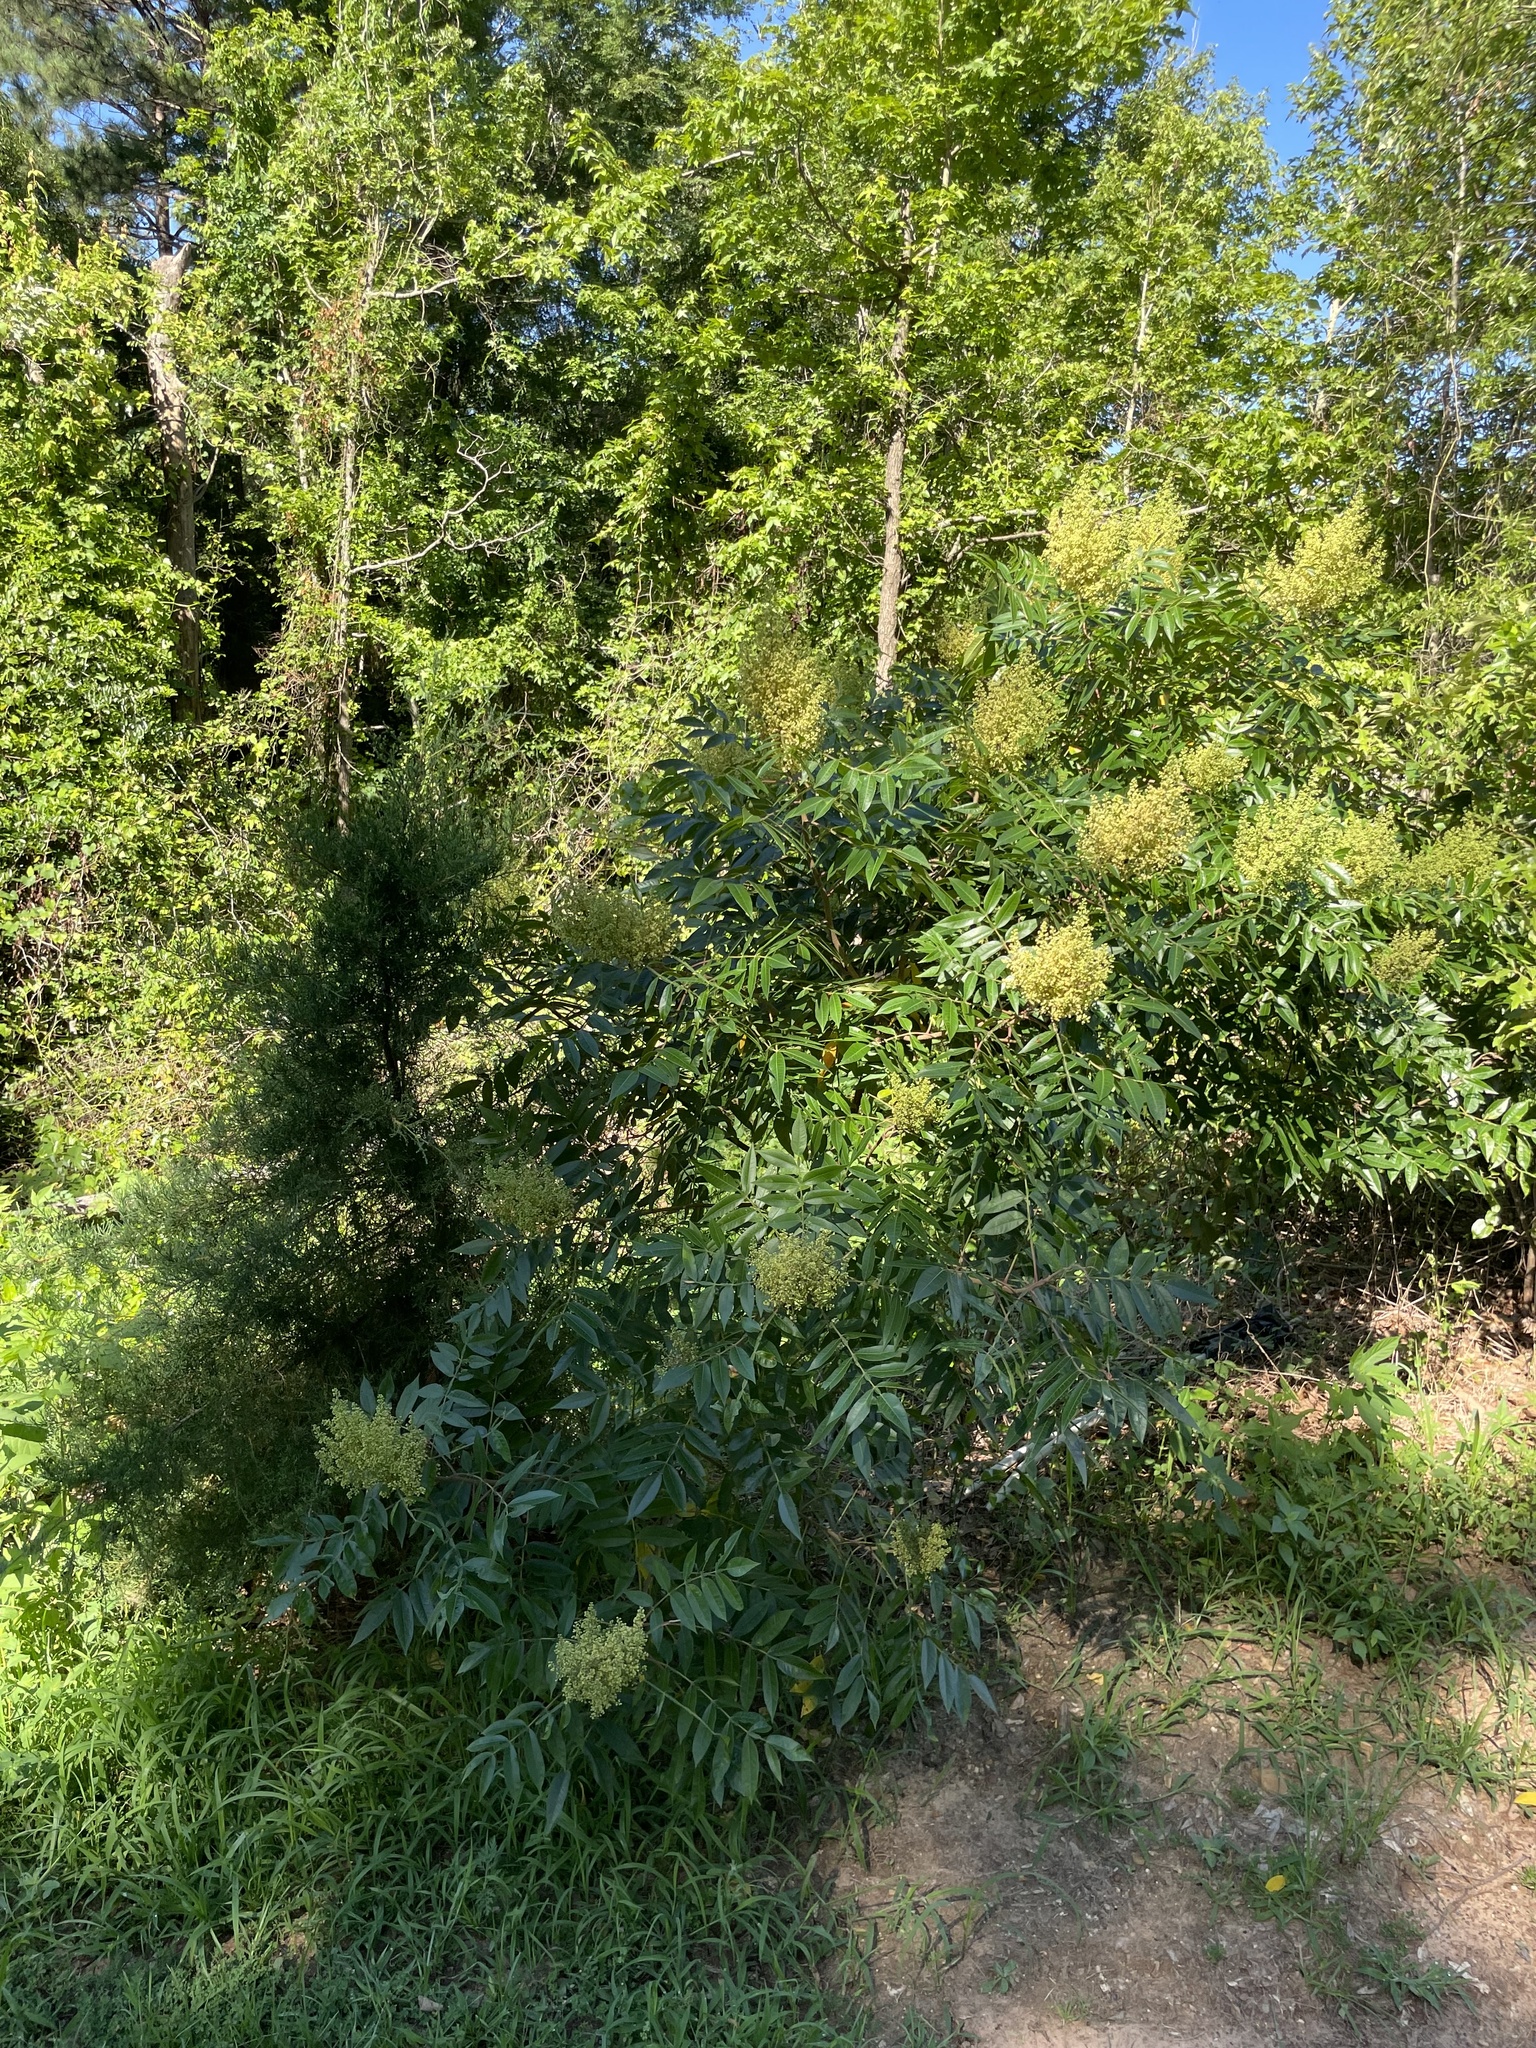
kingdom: Plantae
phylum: Tracheophyta
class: Magnoliopsida
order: Sapindales
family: Anacardiaceae
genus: Rhus
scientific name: Rhus copallina
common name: Shining sumac
